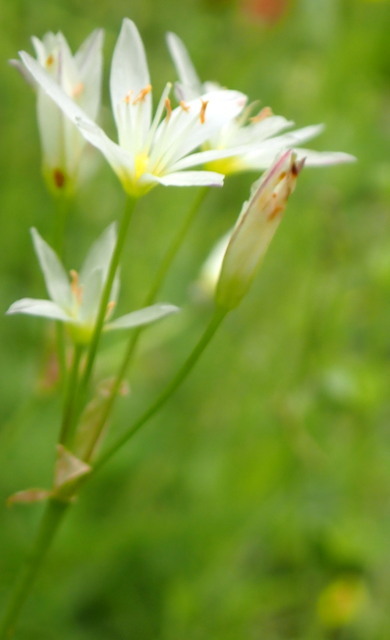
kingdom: Plantae
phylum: Tracheophyta
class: Liliopsida
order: Asparagales
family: Amaryllidaceae
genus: Nothoscordum
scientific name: Nothoscordum bivalve
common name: Crow-poison
